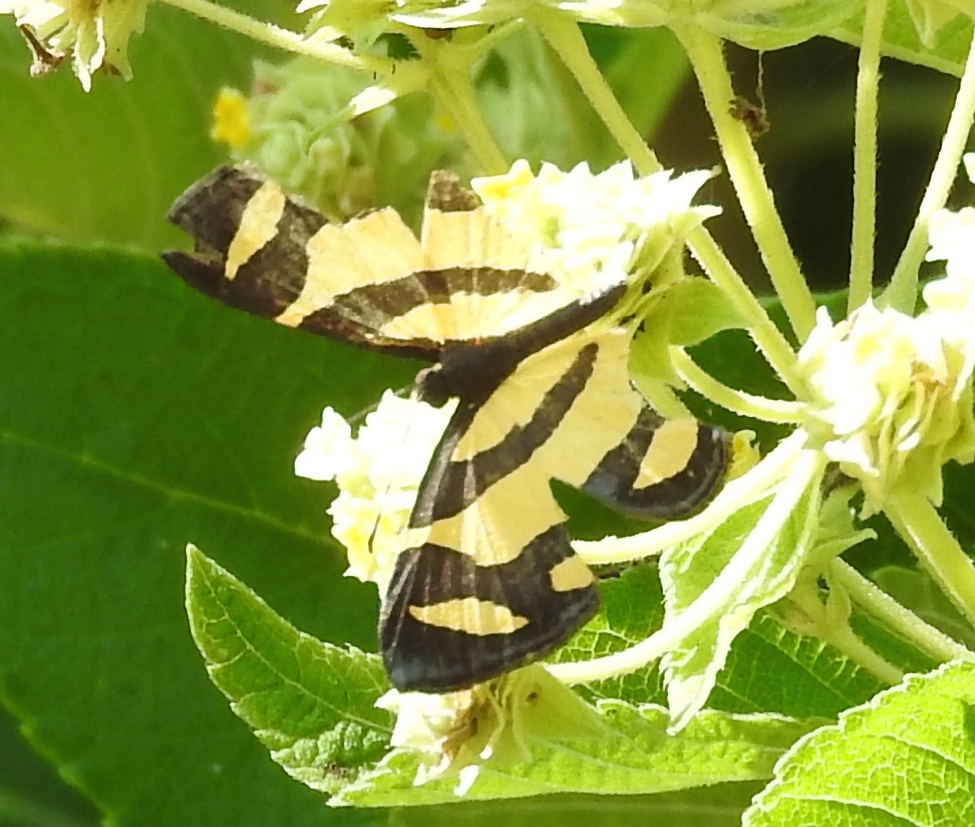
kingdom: Animalia
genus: Baeotis
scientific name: Baeotis zonata
